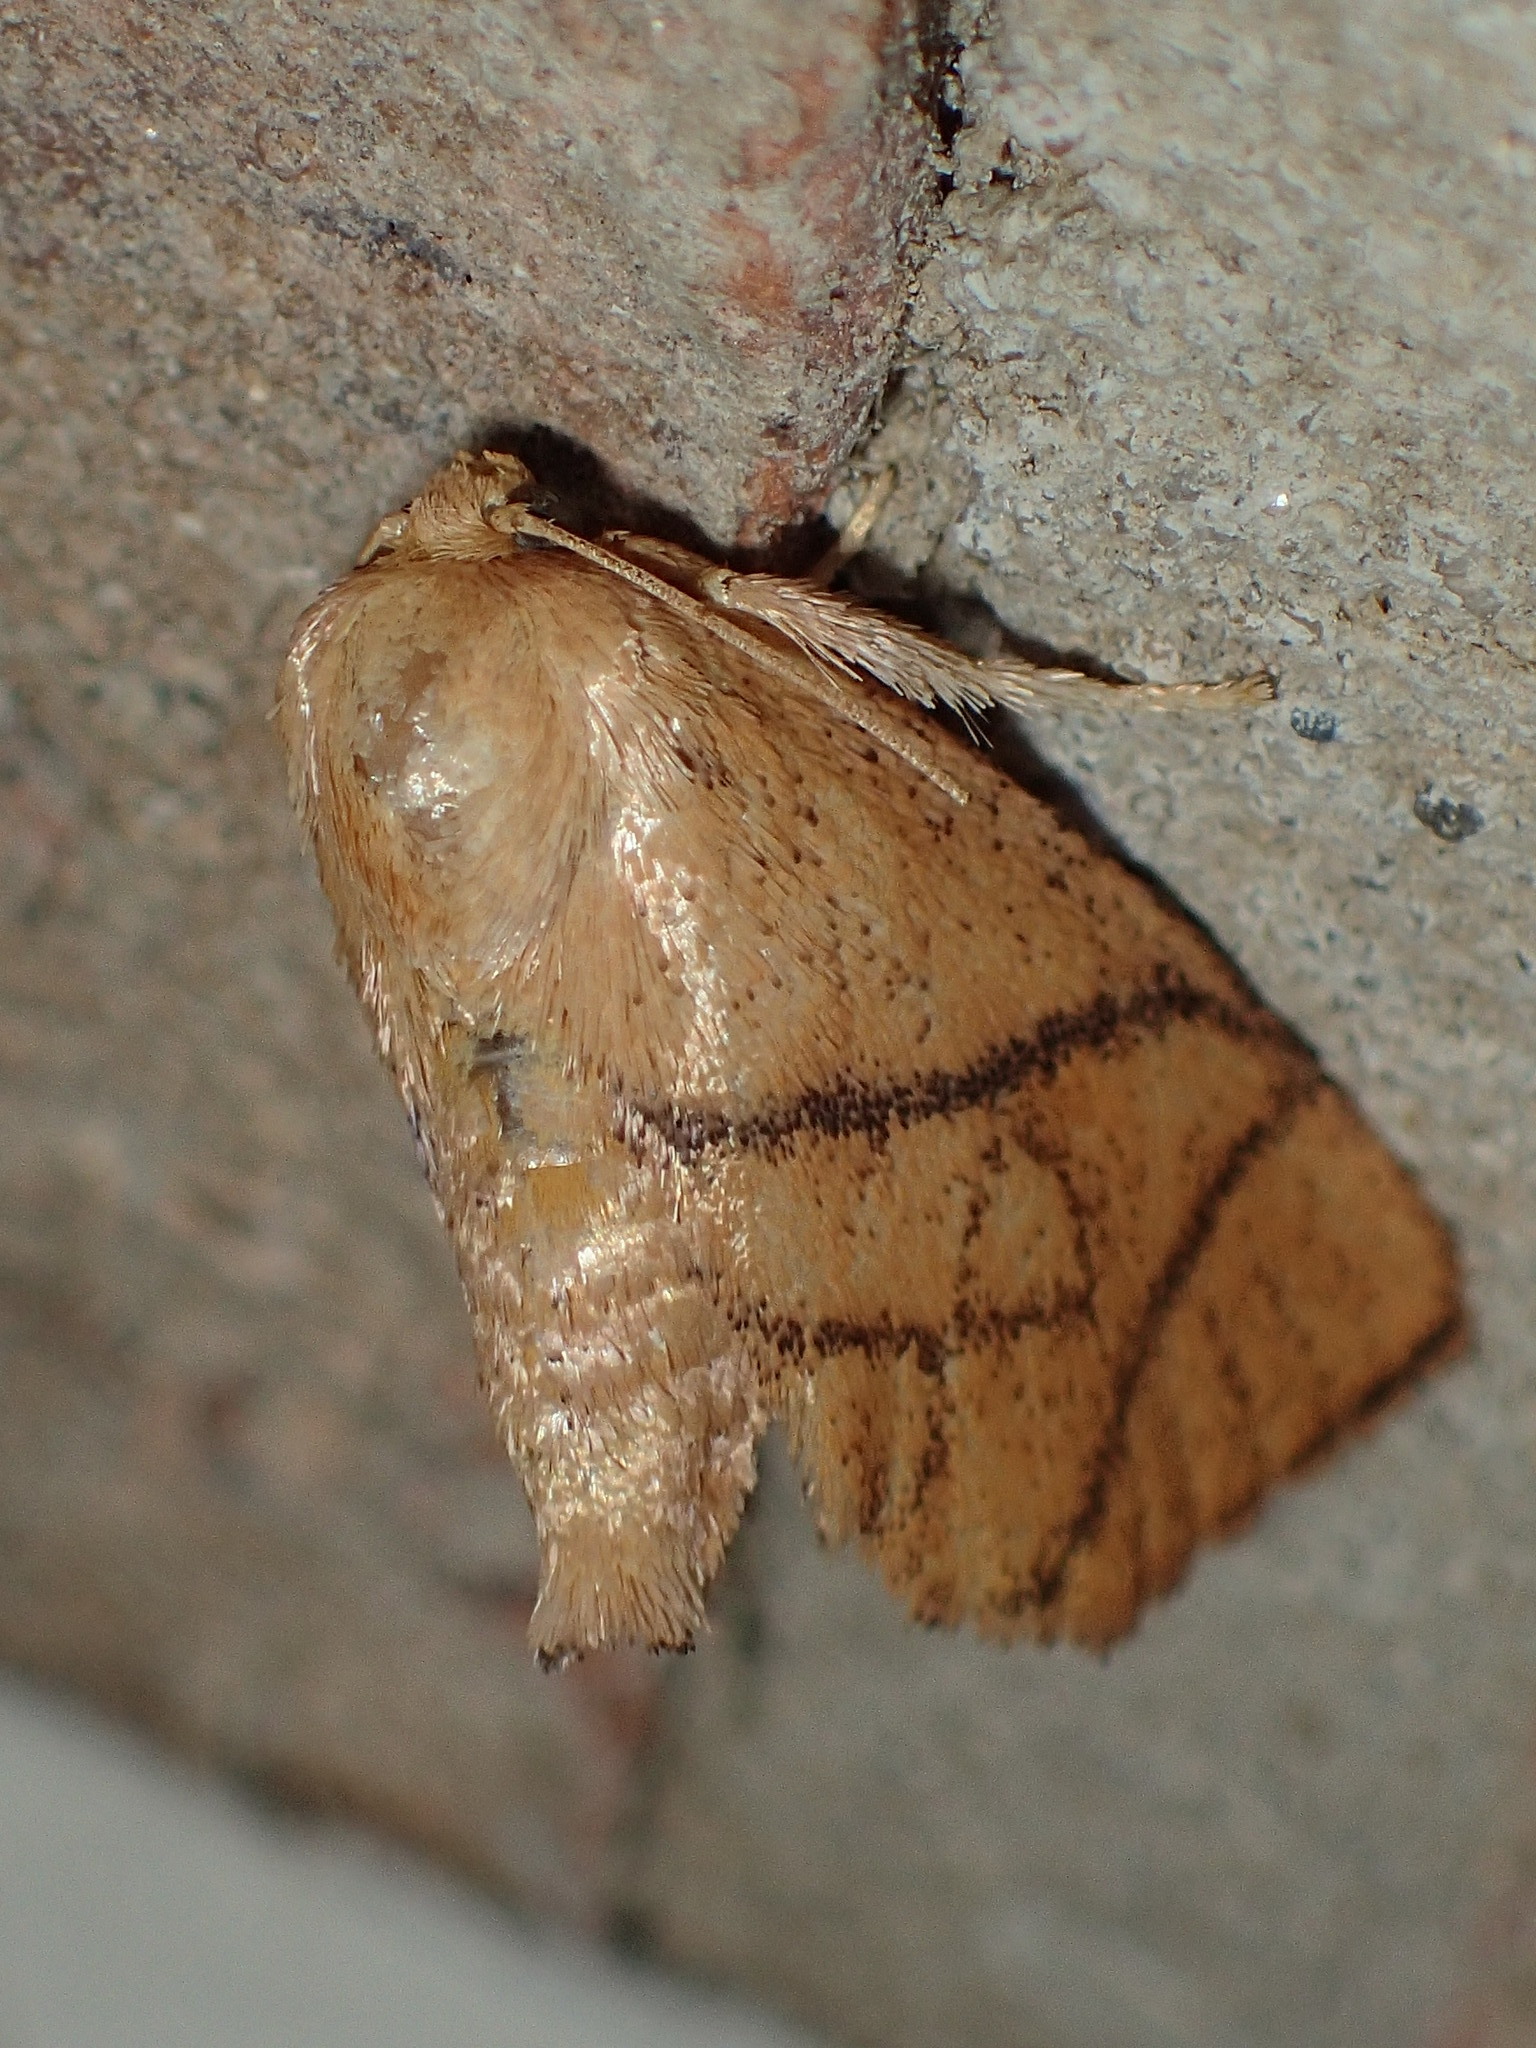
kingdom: Animalia
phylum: Arthropoda
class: Insecta
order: Lepidoptera
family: Limacodidae
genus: Apoda
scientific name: Apoda y-inversa
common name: Yellow-collared slug moth
